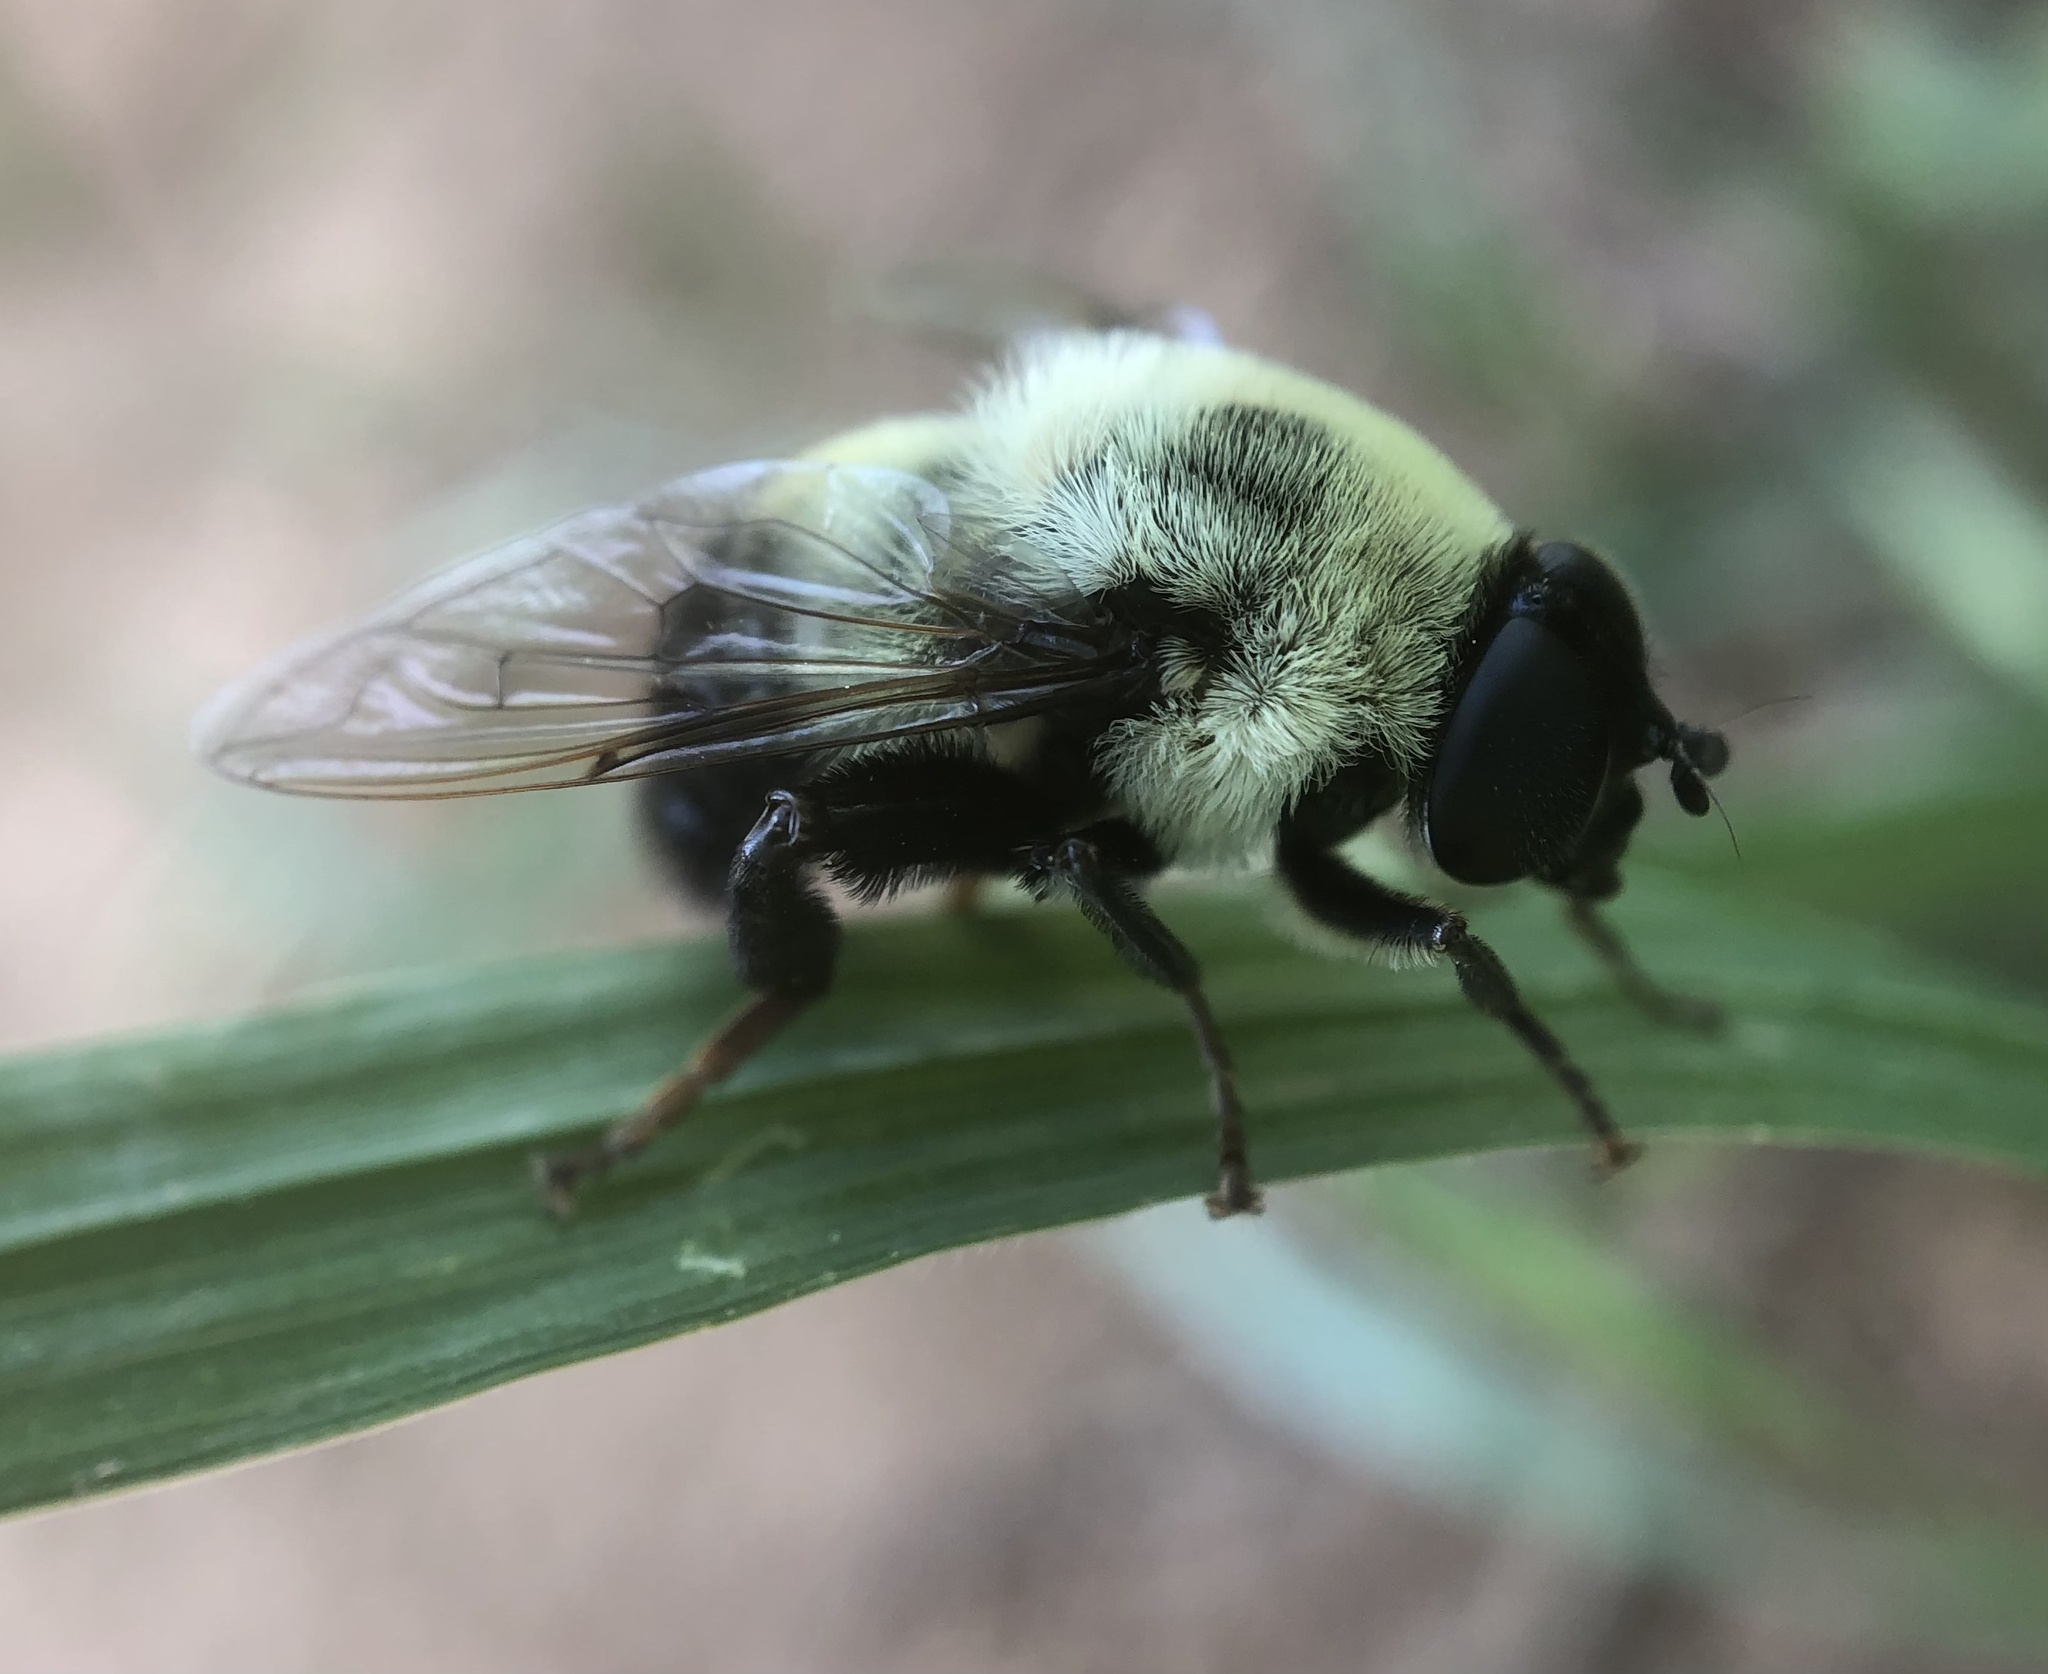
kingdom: Animalia
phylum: Arthropoda
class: Insecta
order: Diptera
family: Syrphidae
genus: Imatisma
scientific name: Imatisma posticata
